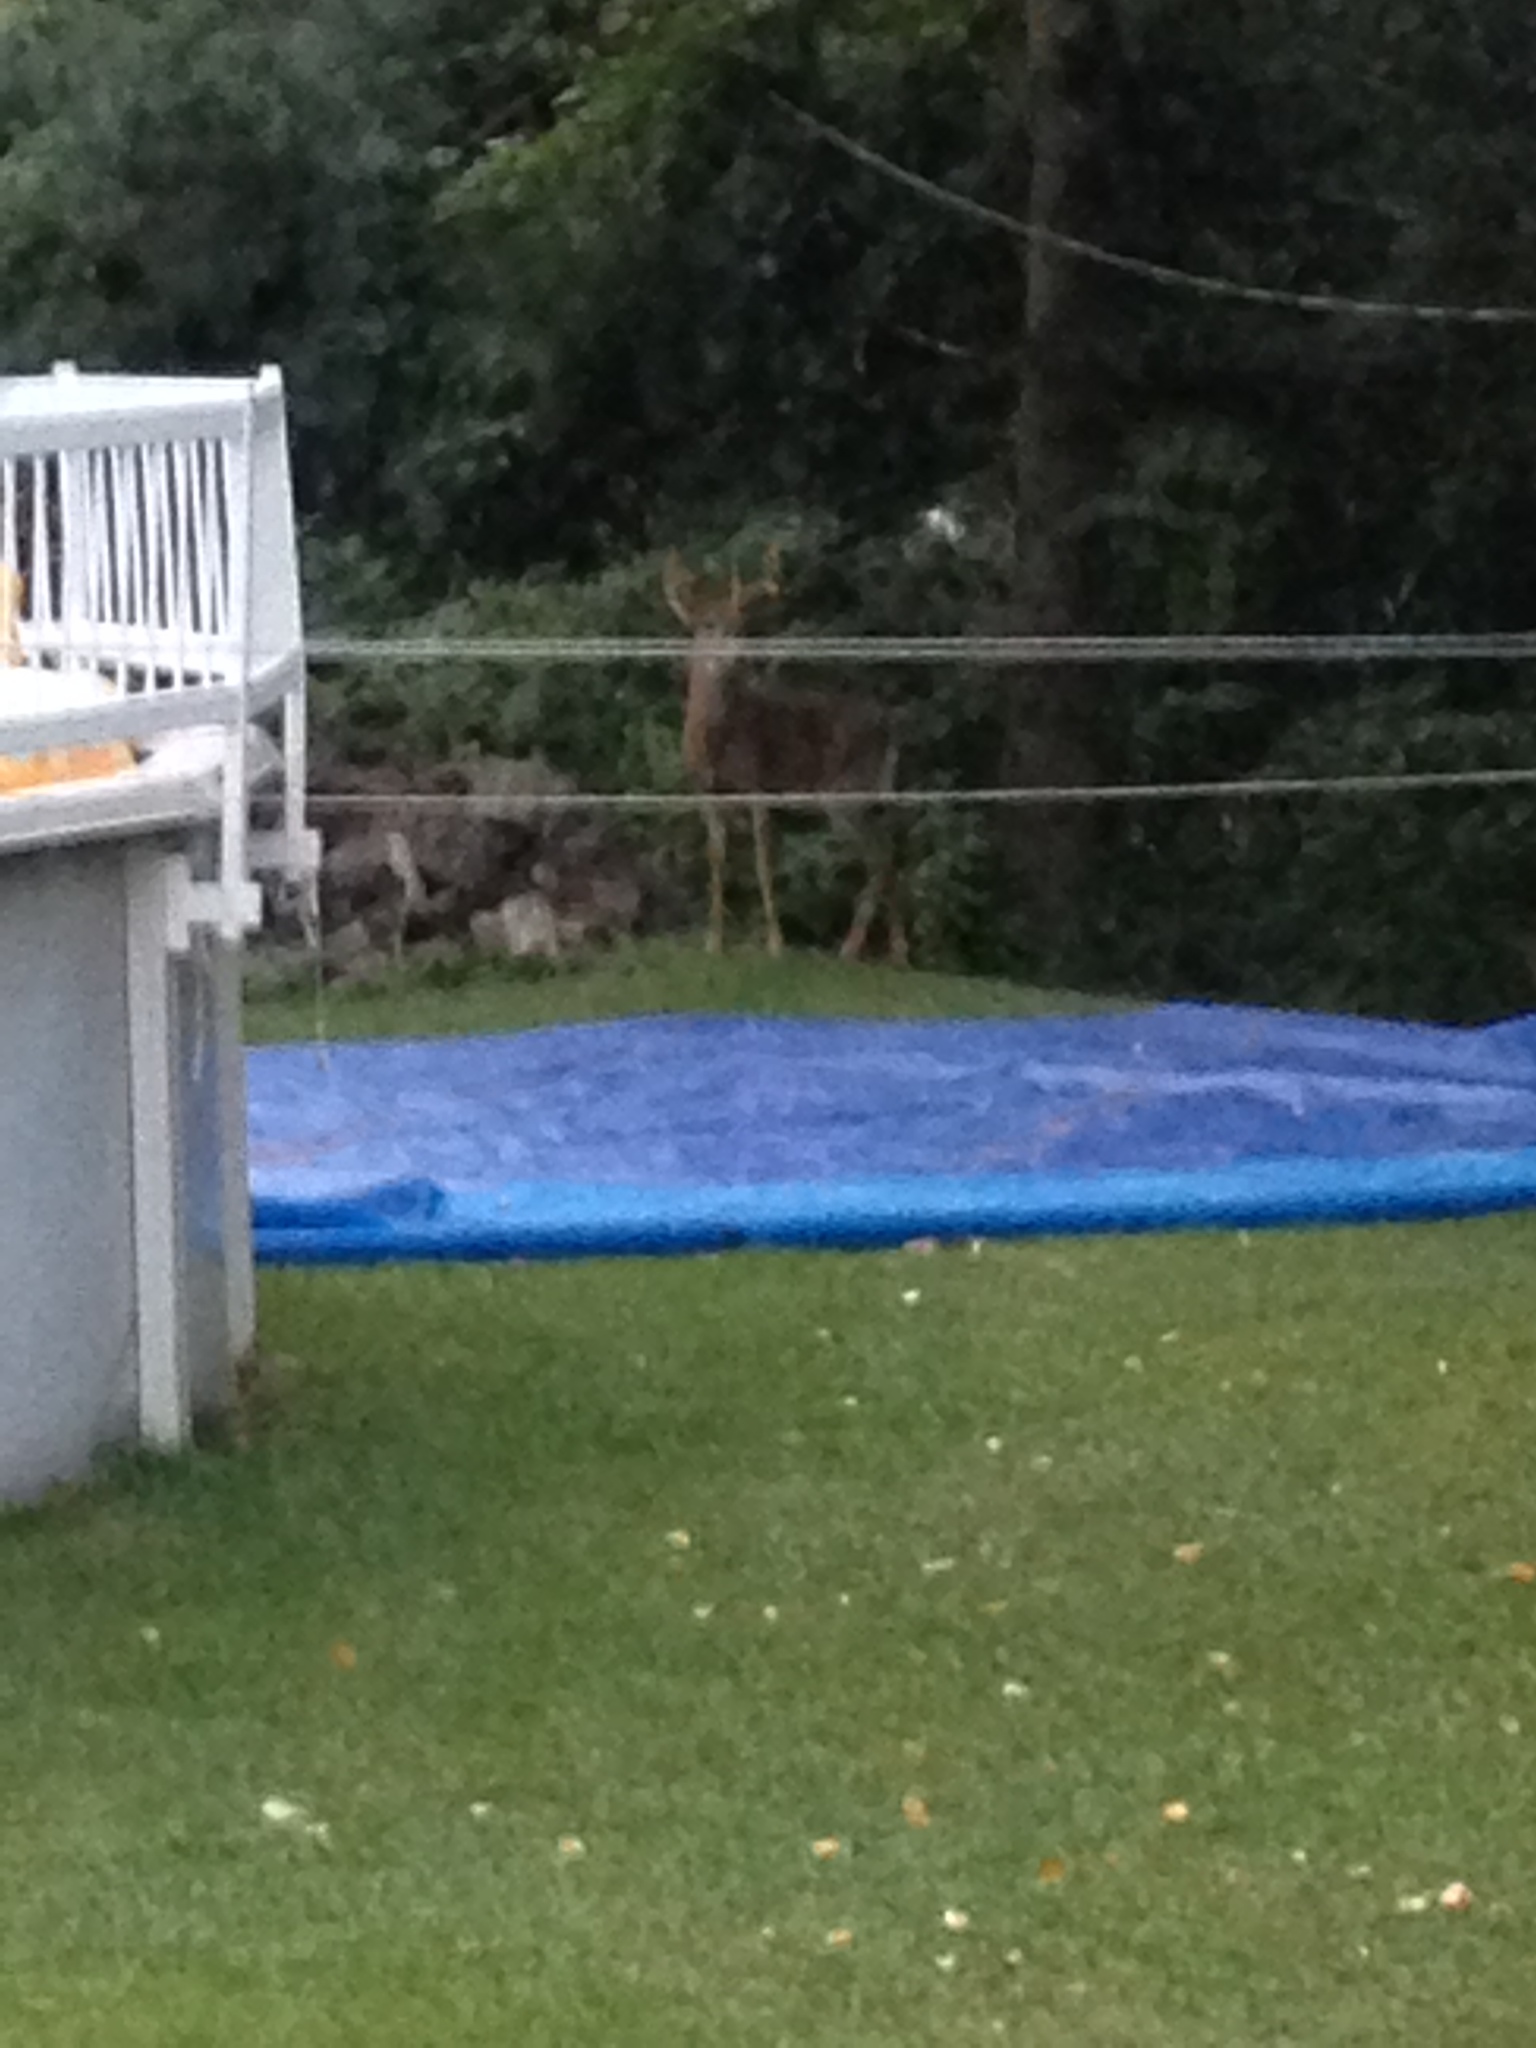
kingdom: Animalia
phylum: Chordata
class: Mammalia
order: Artiodactyla
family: Cervidae
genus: Odocoileus
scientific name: Odocoileus virginianus
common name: White-tailed deer
